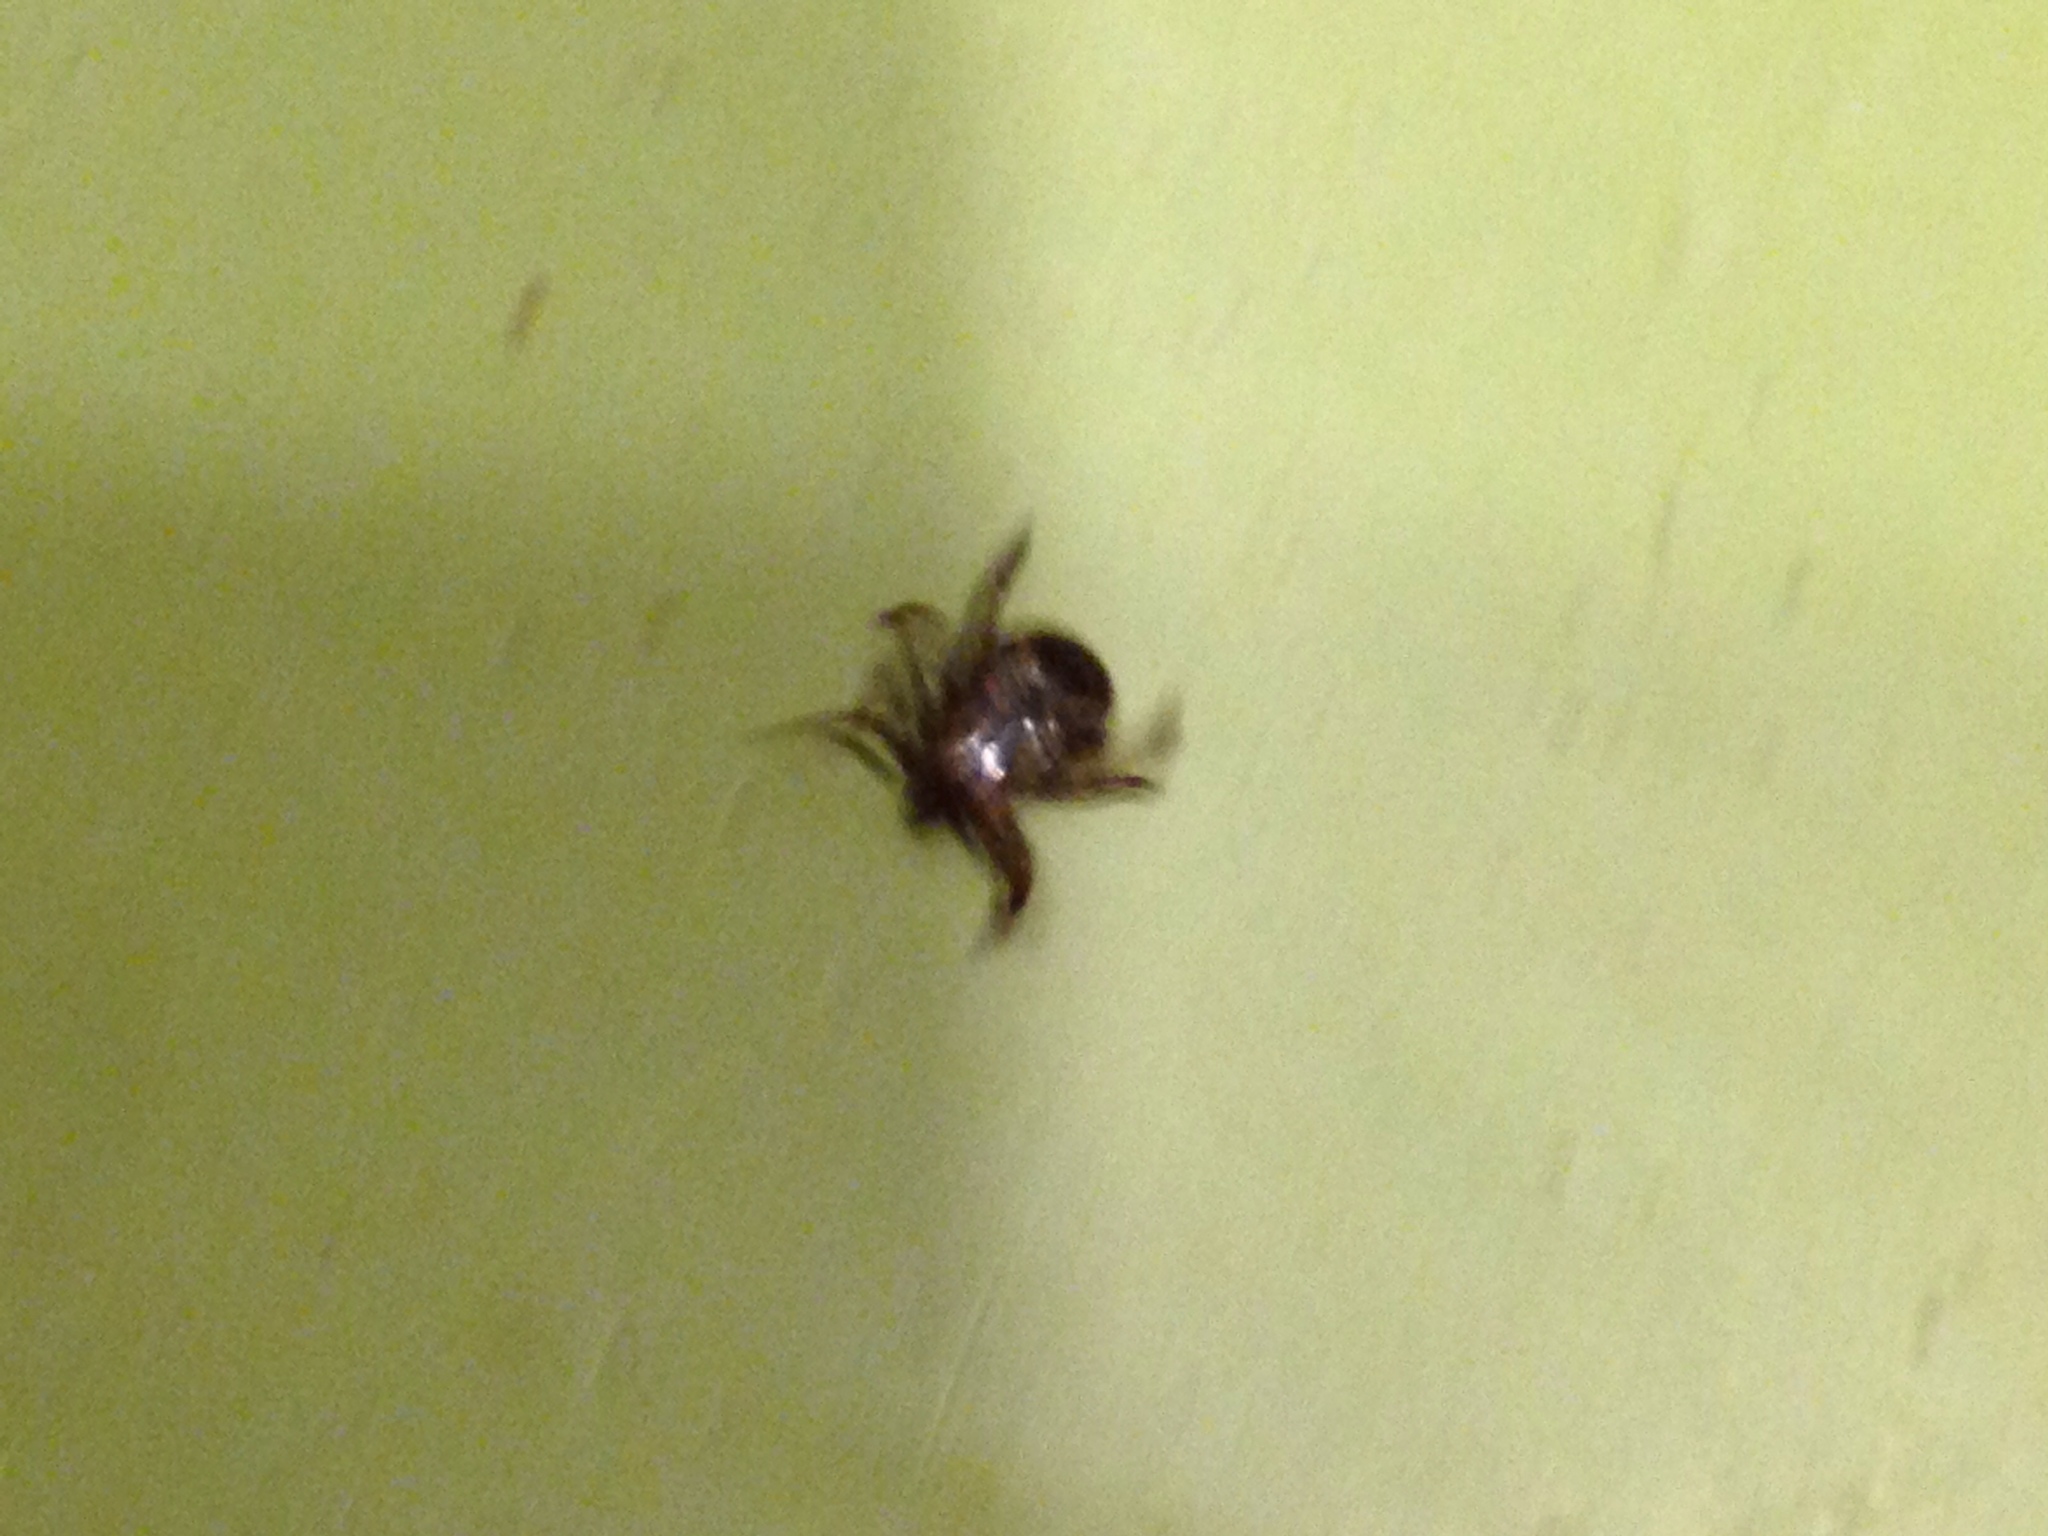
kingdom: Animalia
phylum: Arthropoda
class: Arachnida
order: Ixodida
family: Ixodidae
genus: Dermacentor
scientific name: Dermacentor variabilis
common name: American dog tick
